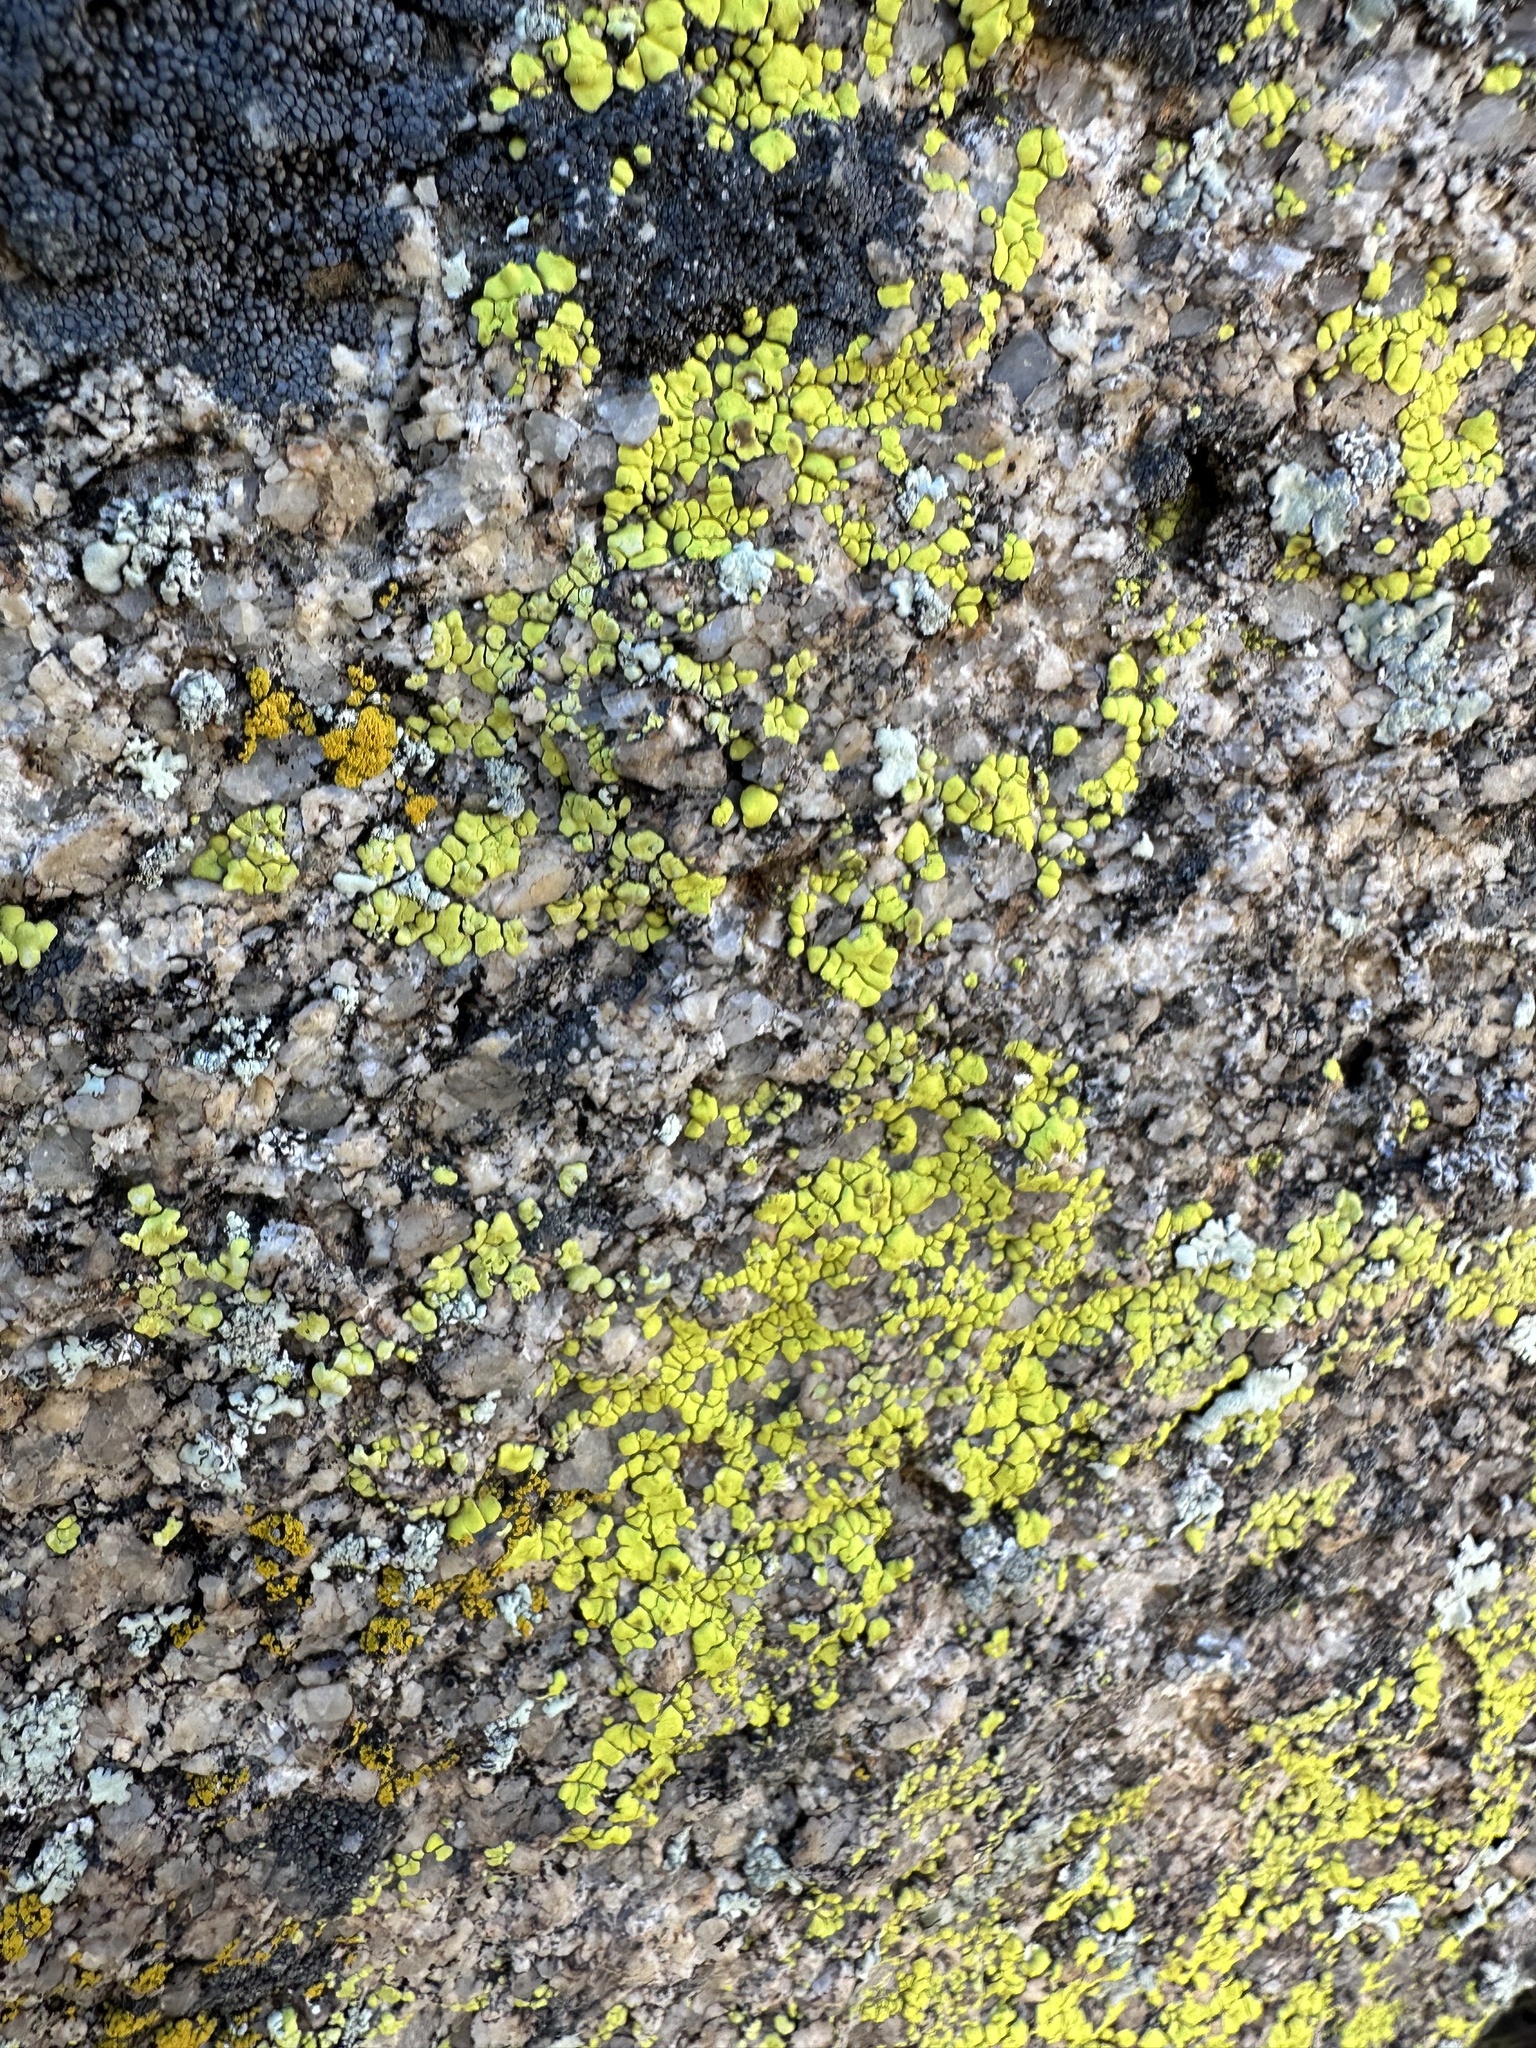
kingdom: Fungi
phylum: Ascomycota
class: Candelariomycetes
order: Candelariales
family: Candelariaceae
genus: Candelariella
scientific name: Candelariella rosulans
